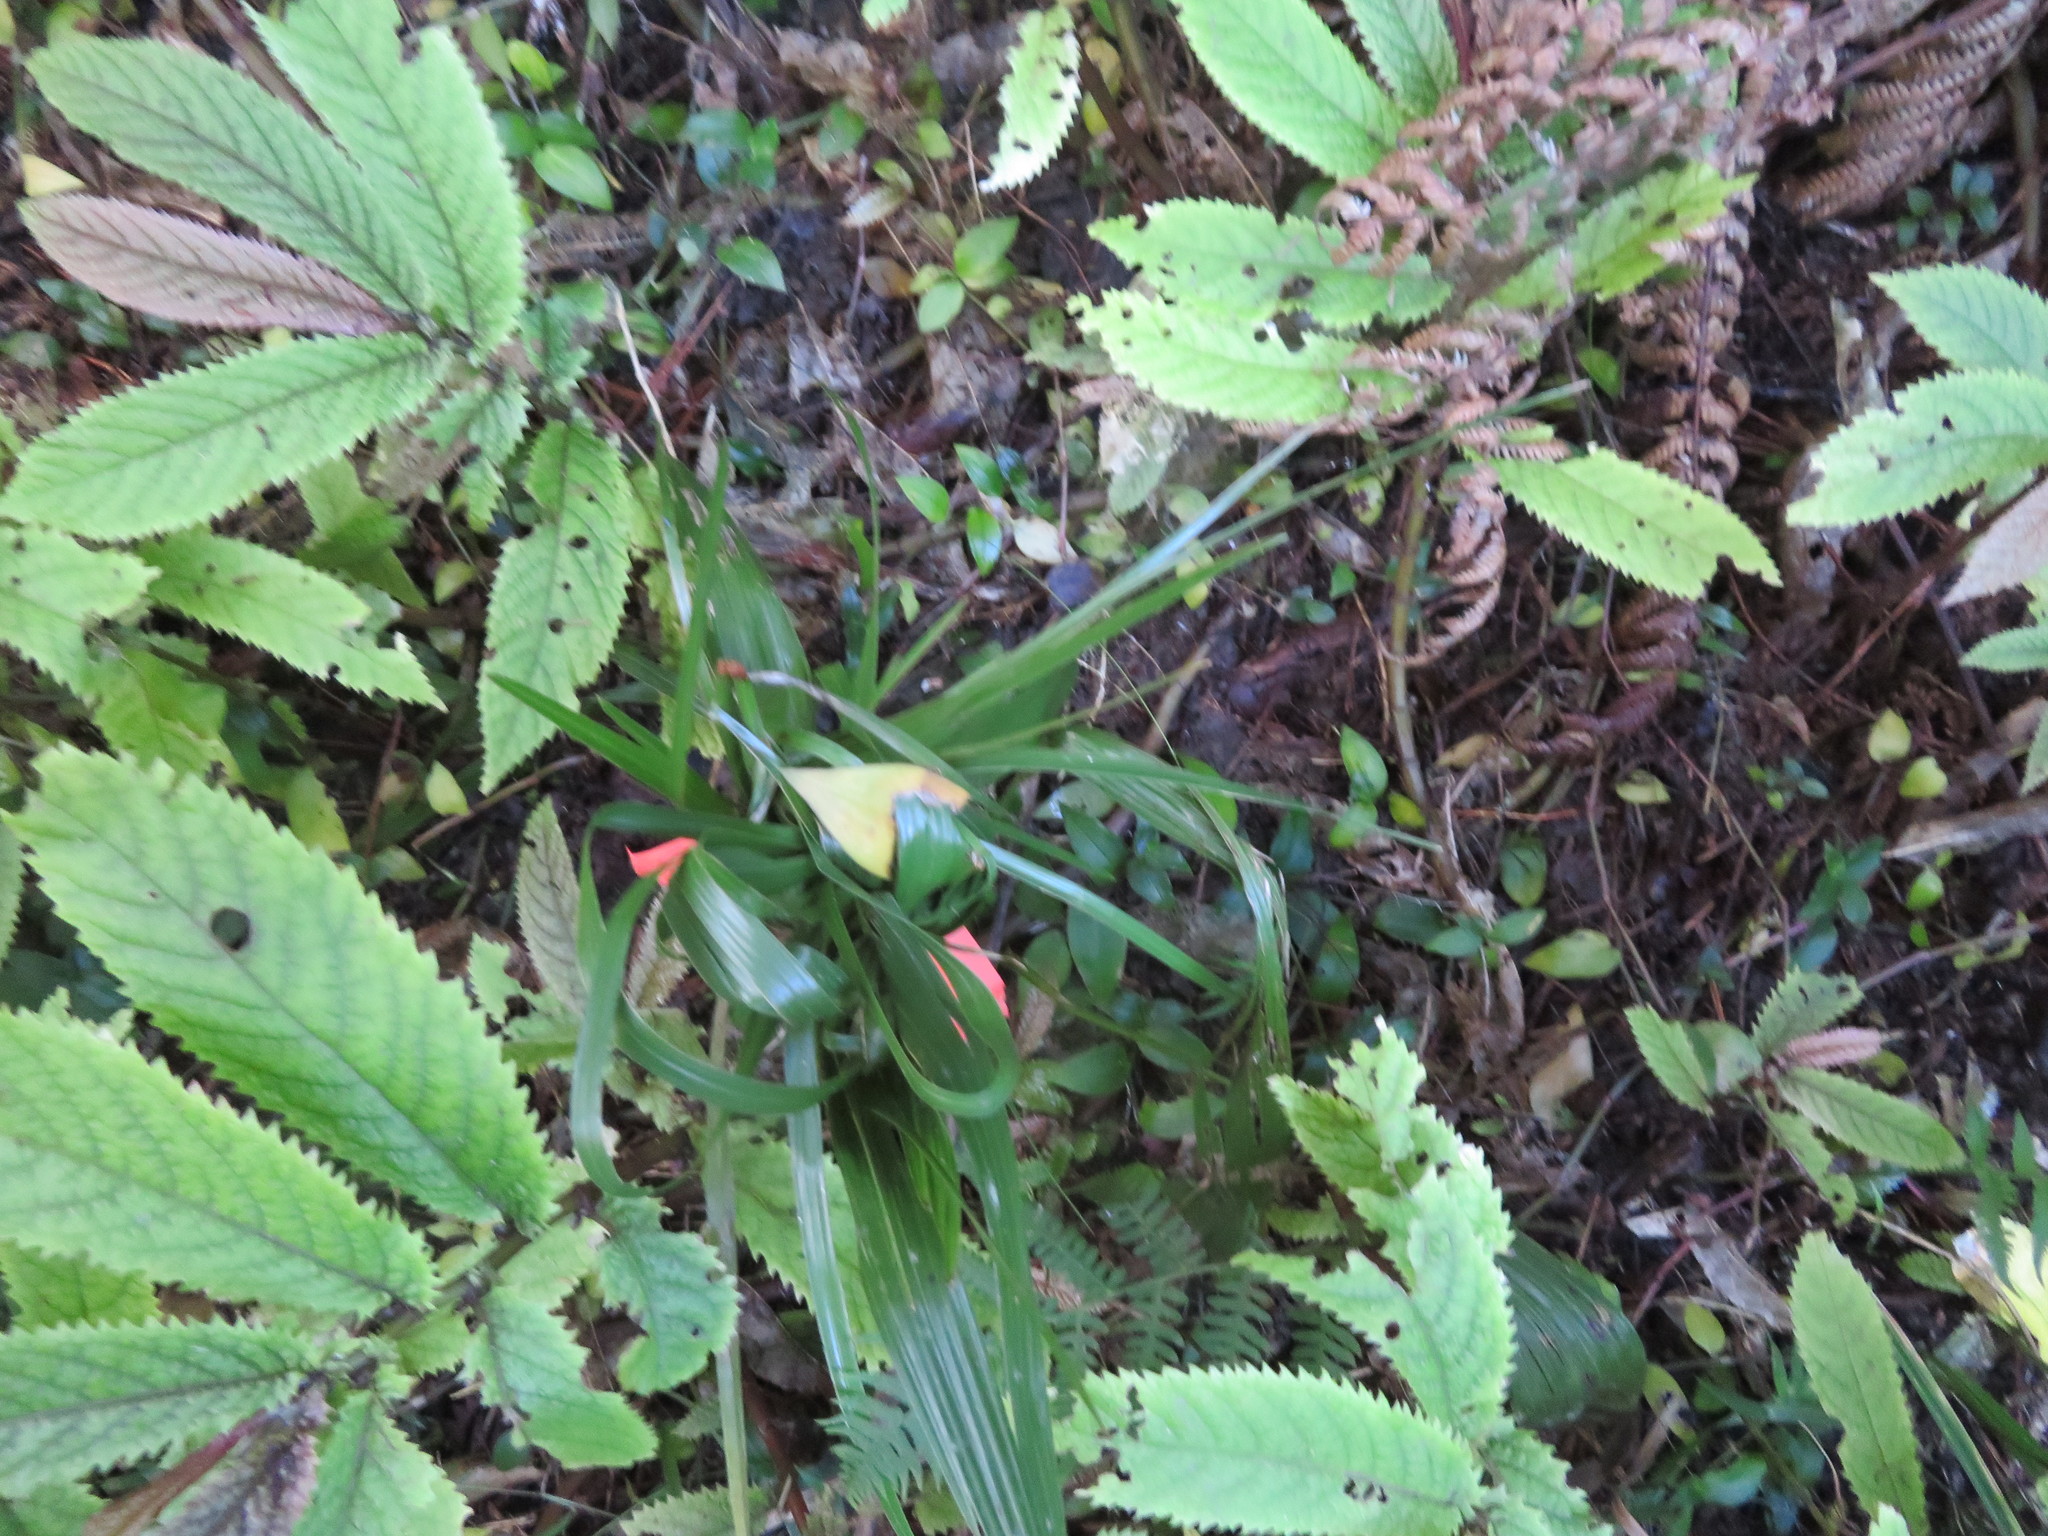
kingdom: Plantae
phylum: Tracheophyta
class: Liliopsida
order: Arecales
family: Arecaceae
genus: Phoenix
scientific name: Phoenix canariensis
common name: Canary island date palm
